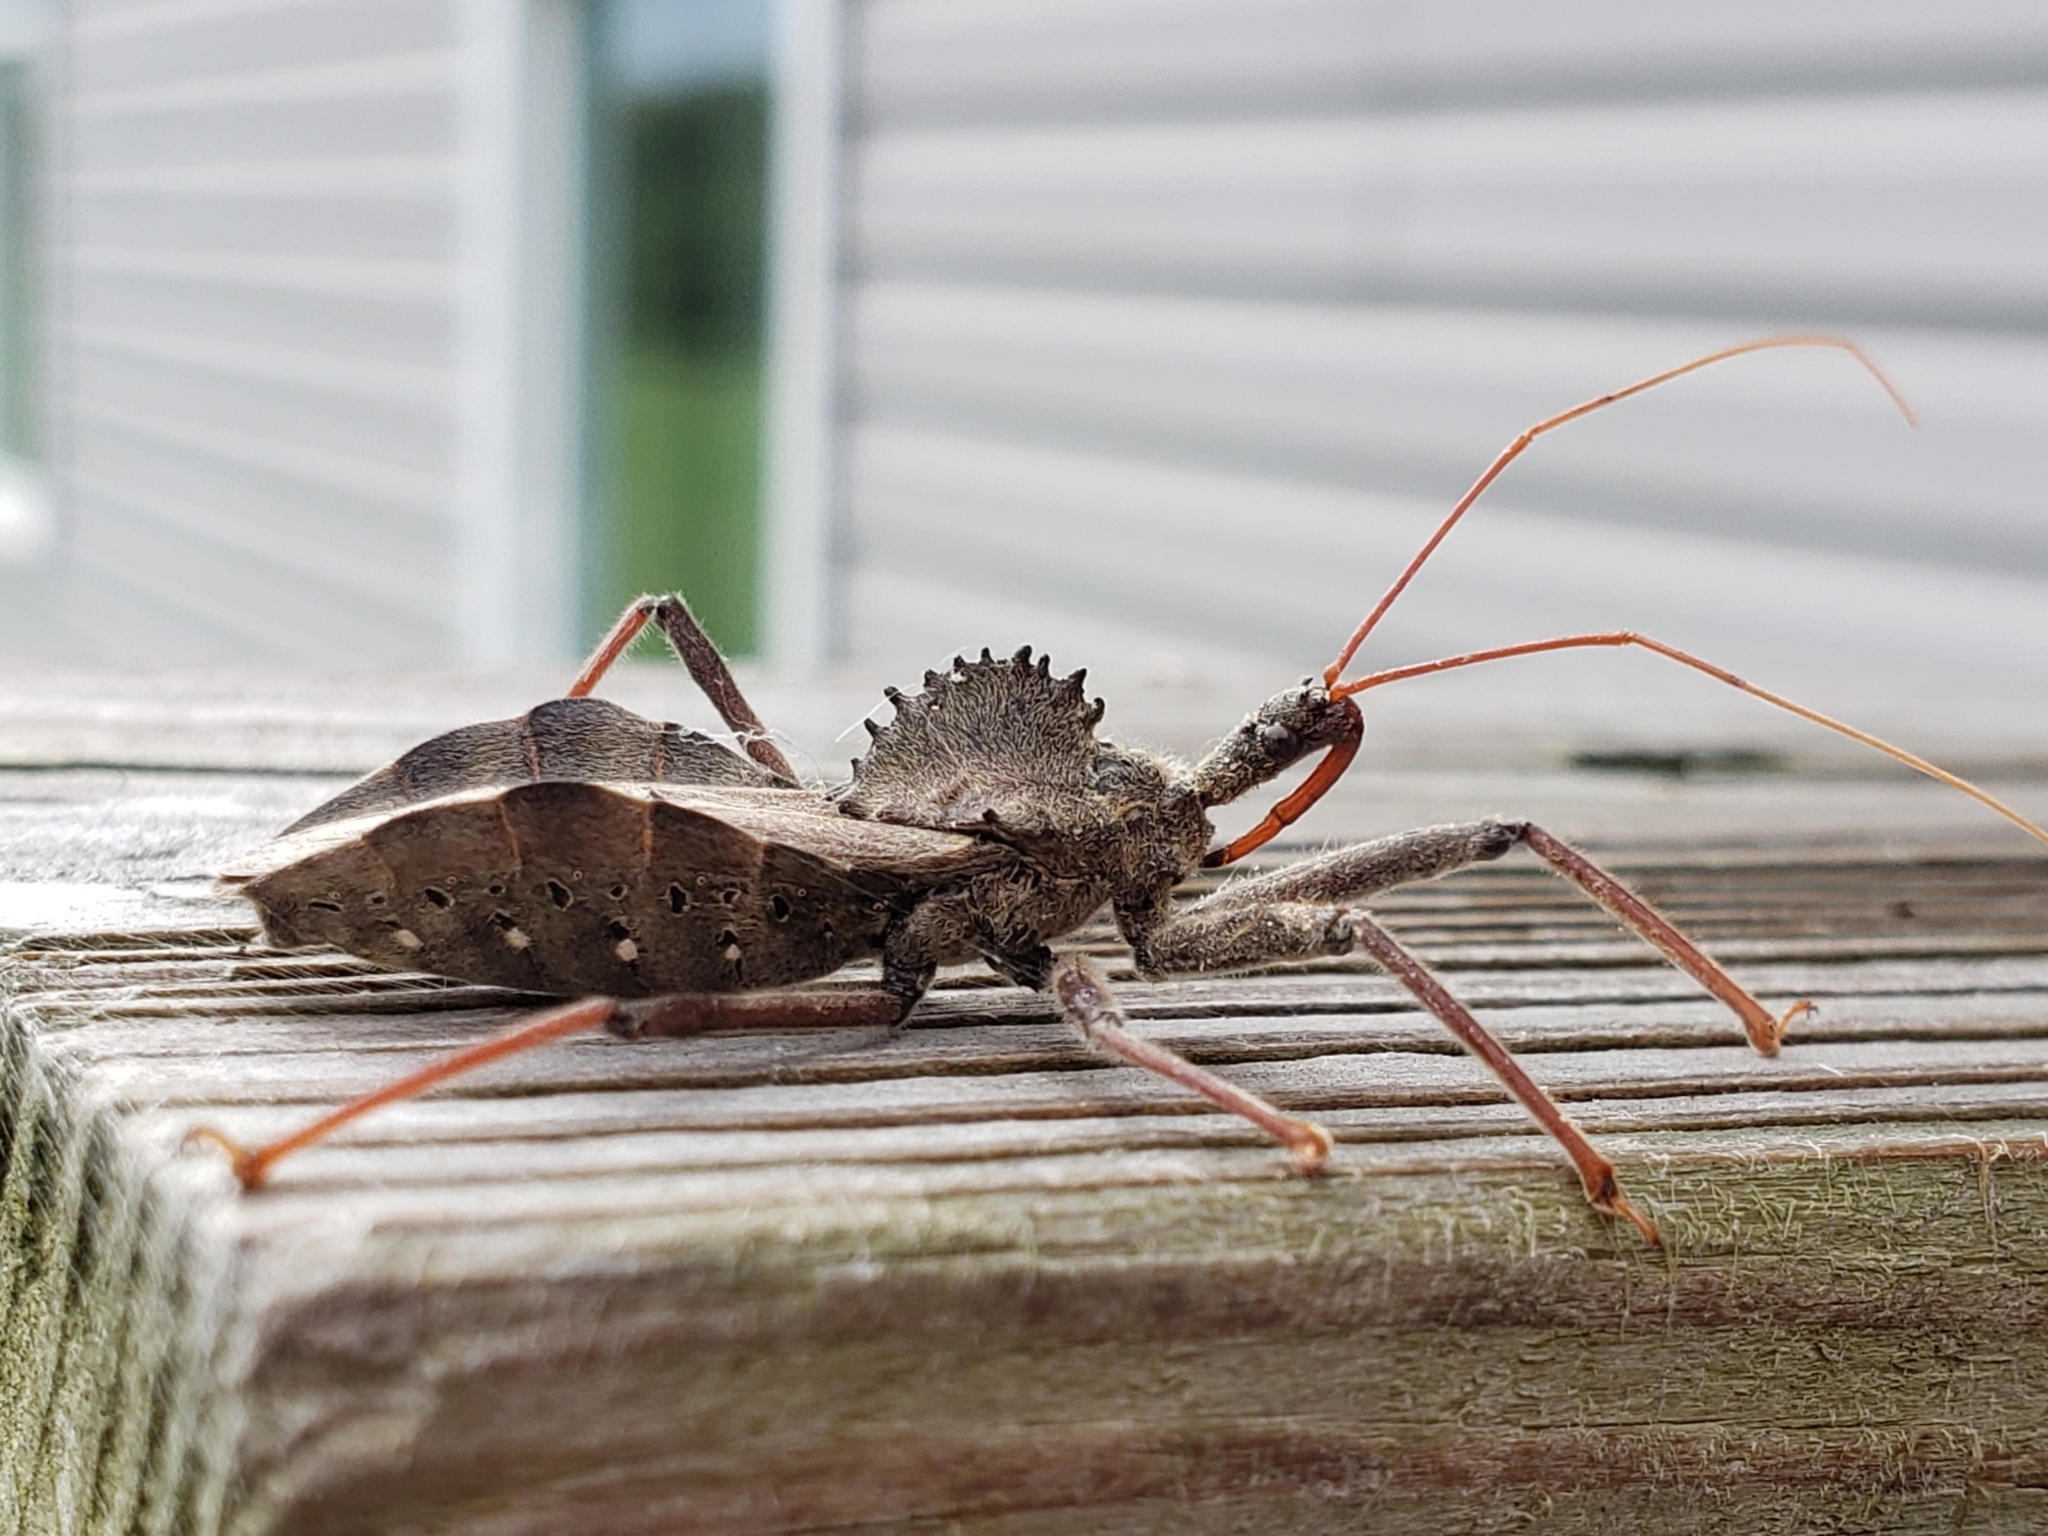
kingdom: Animalia
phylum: Arthropoda
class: Insecta
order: Hemiptera
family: Reduviidae
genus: Arilus
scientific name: Arilus cristatus
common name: North american wheel bug
